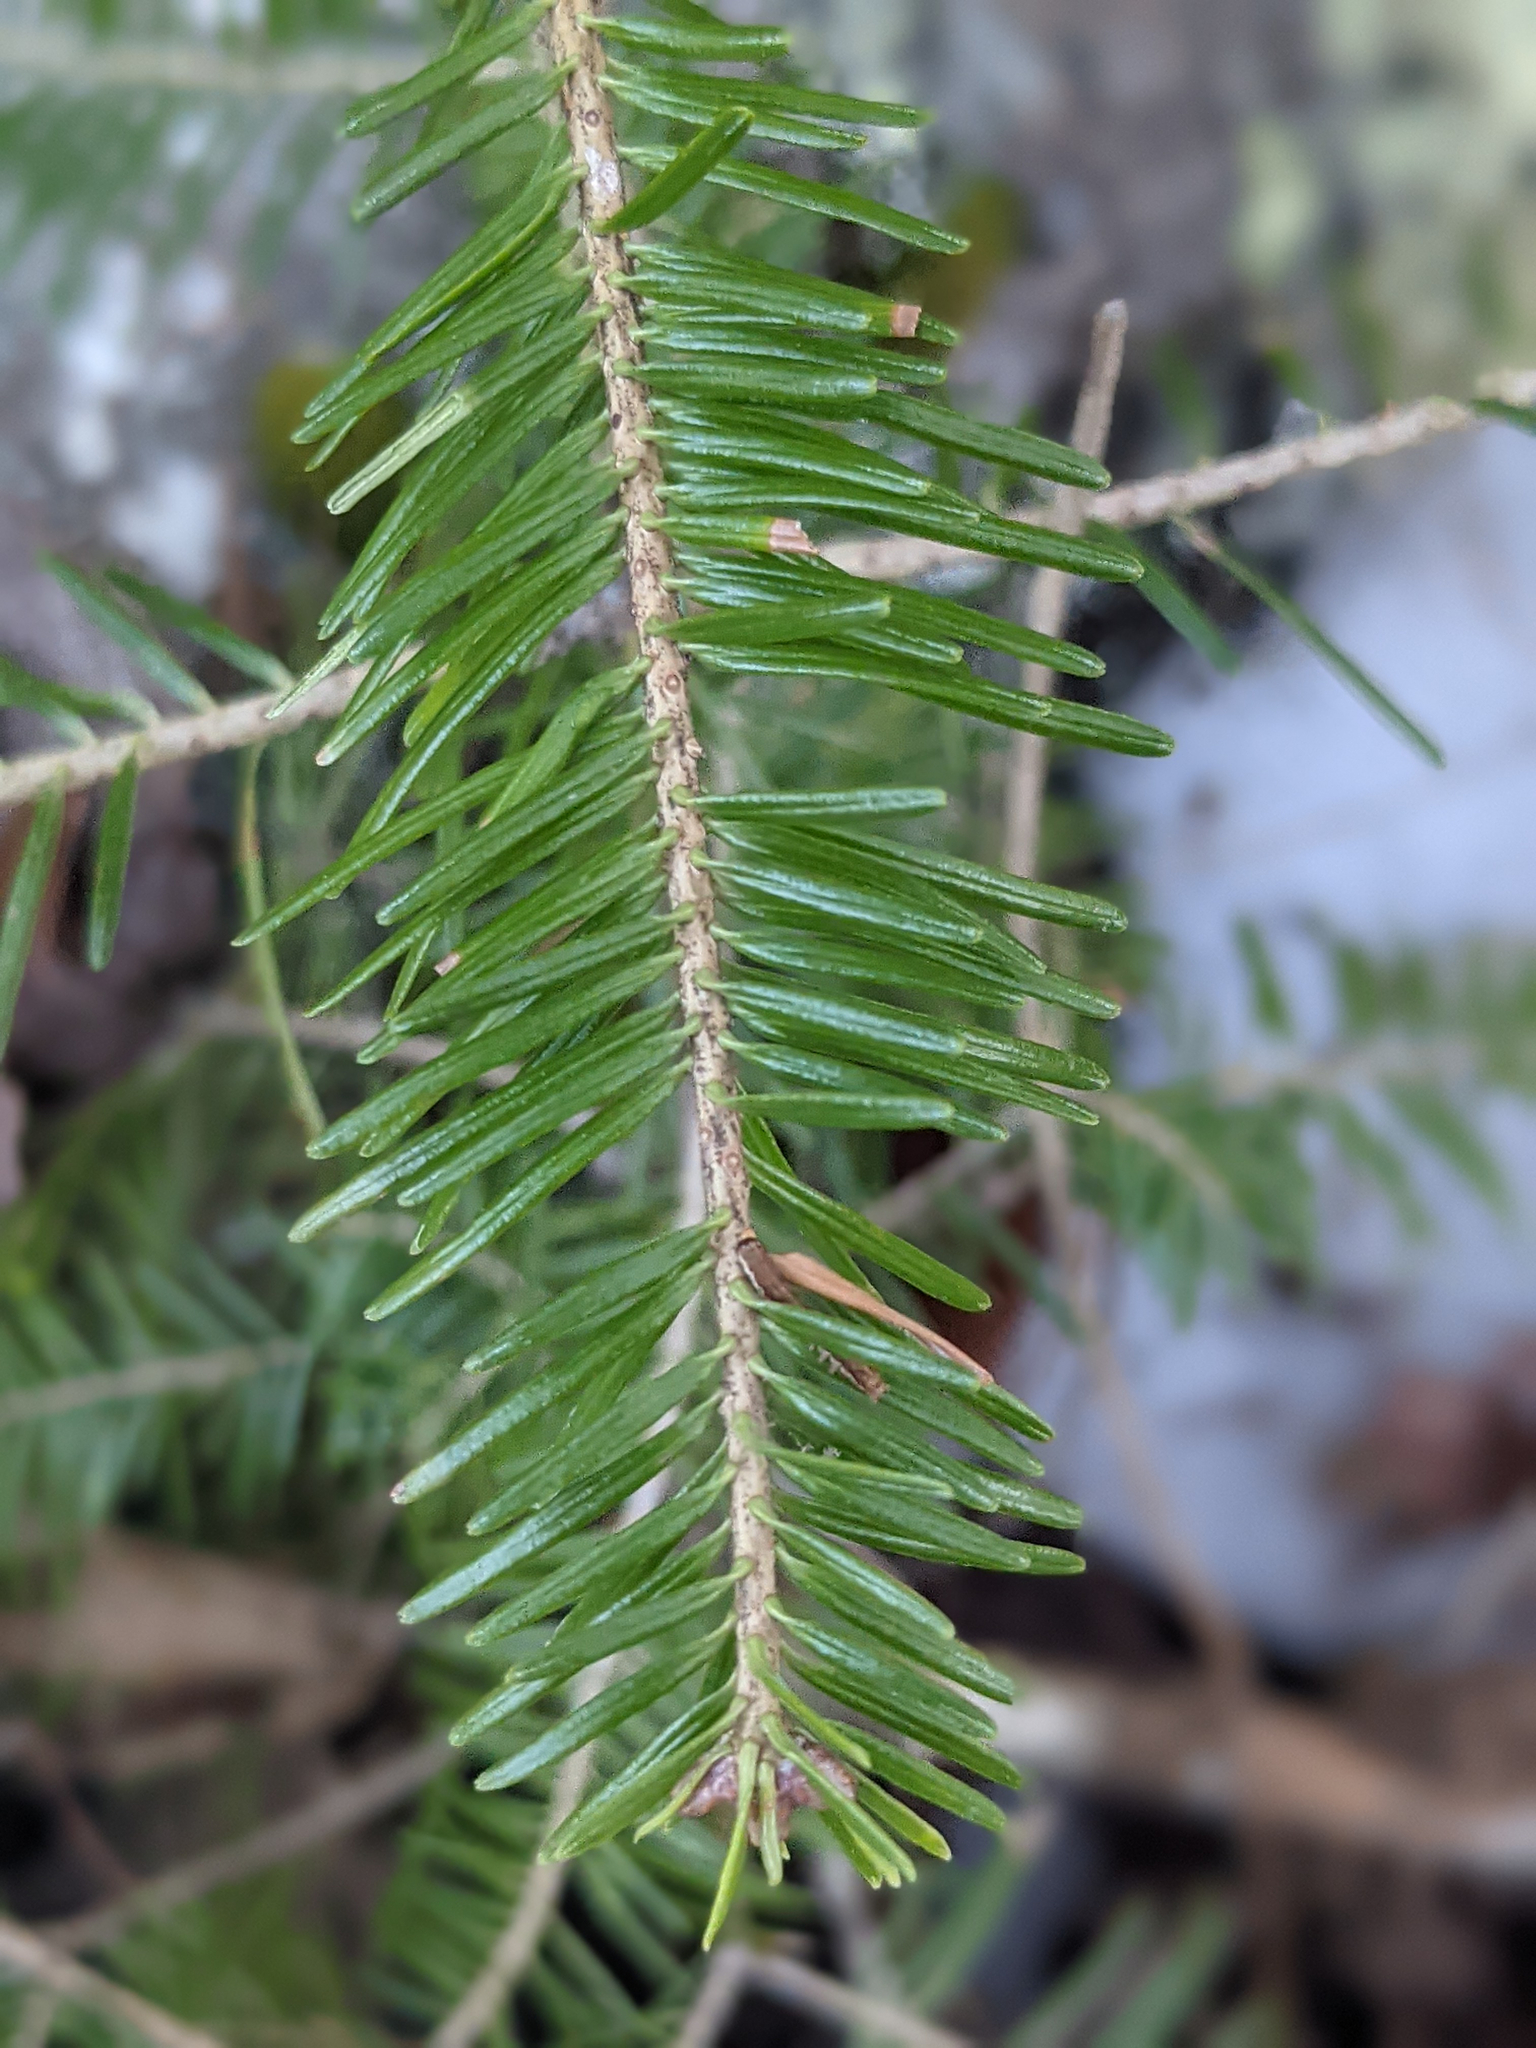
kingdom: Plantae
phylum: Tracheophyta
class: Pinopsida
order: Pinales
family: Pinaceae
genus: Abies
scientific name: Abies balsamea
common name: Balsam fir
